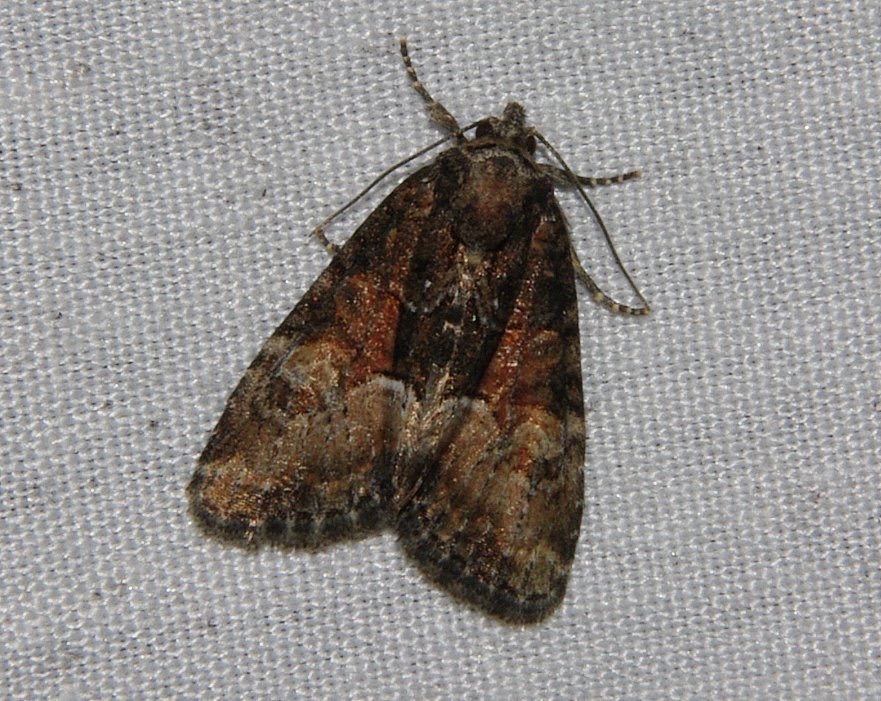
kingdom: Animalia
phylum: Arthropoda
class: Insecta
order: Lepidoptera
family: Noctuidae
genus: Neoligia
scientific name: Neoligia subjuncta
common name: Connected brocade
